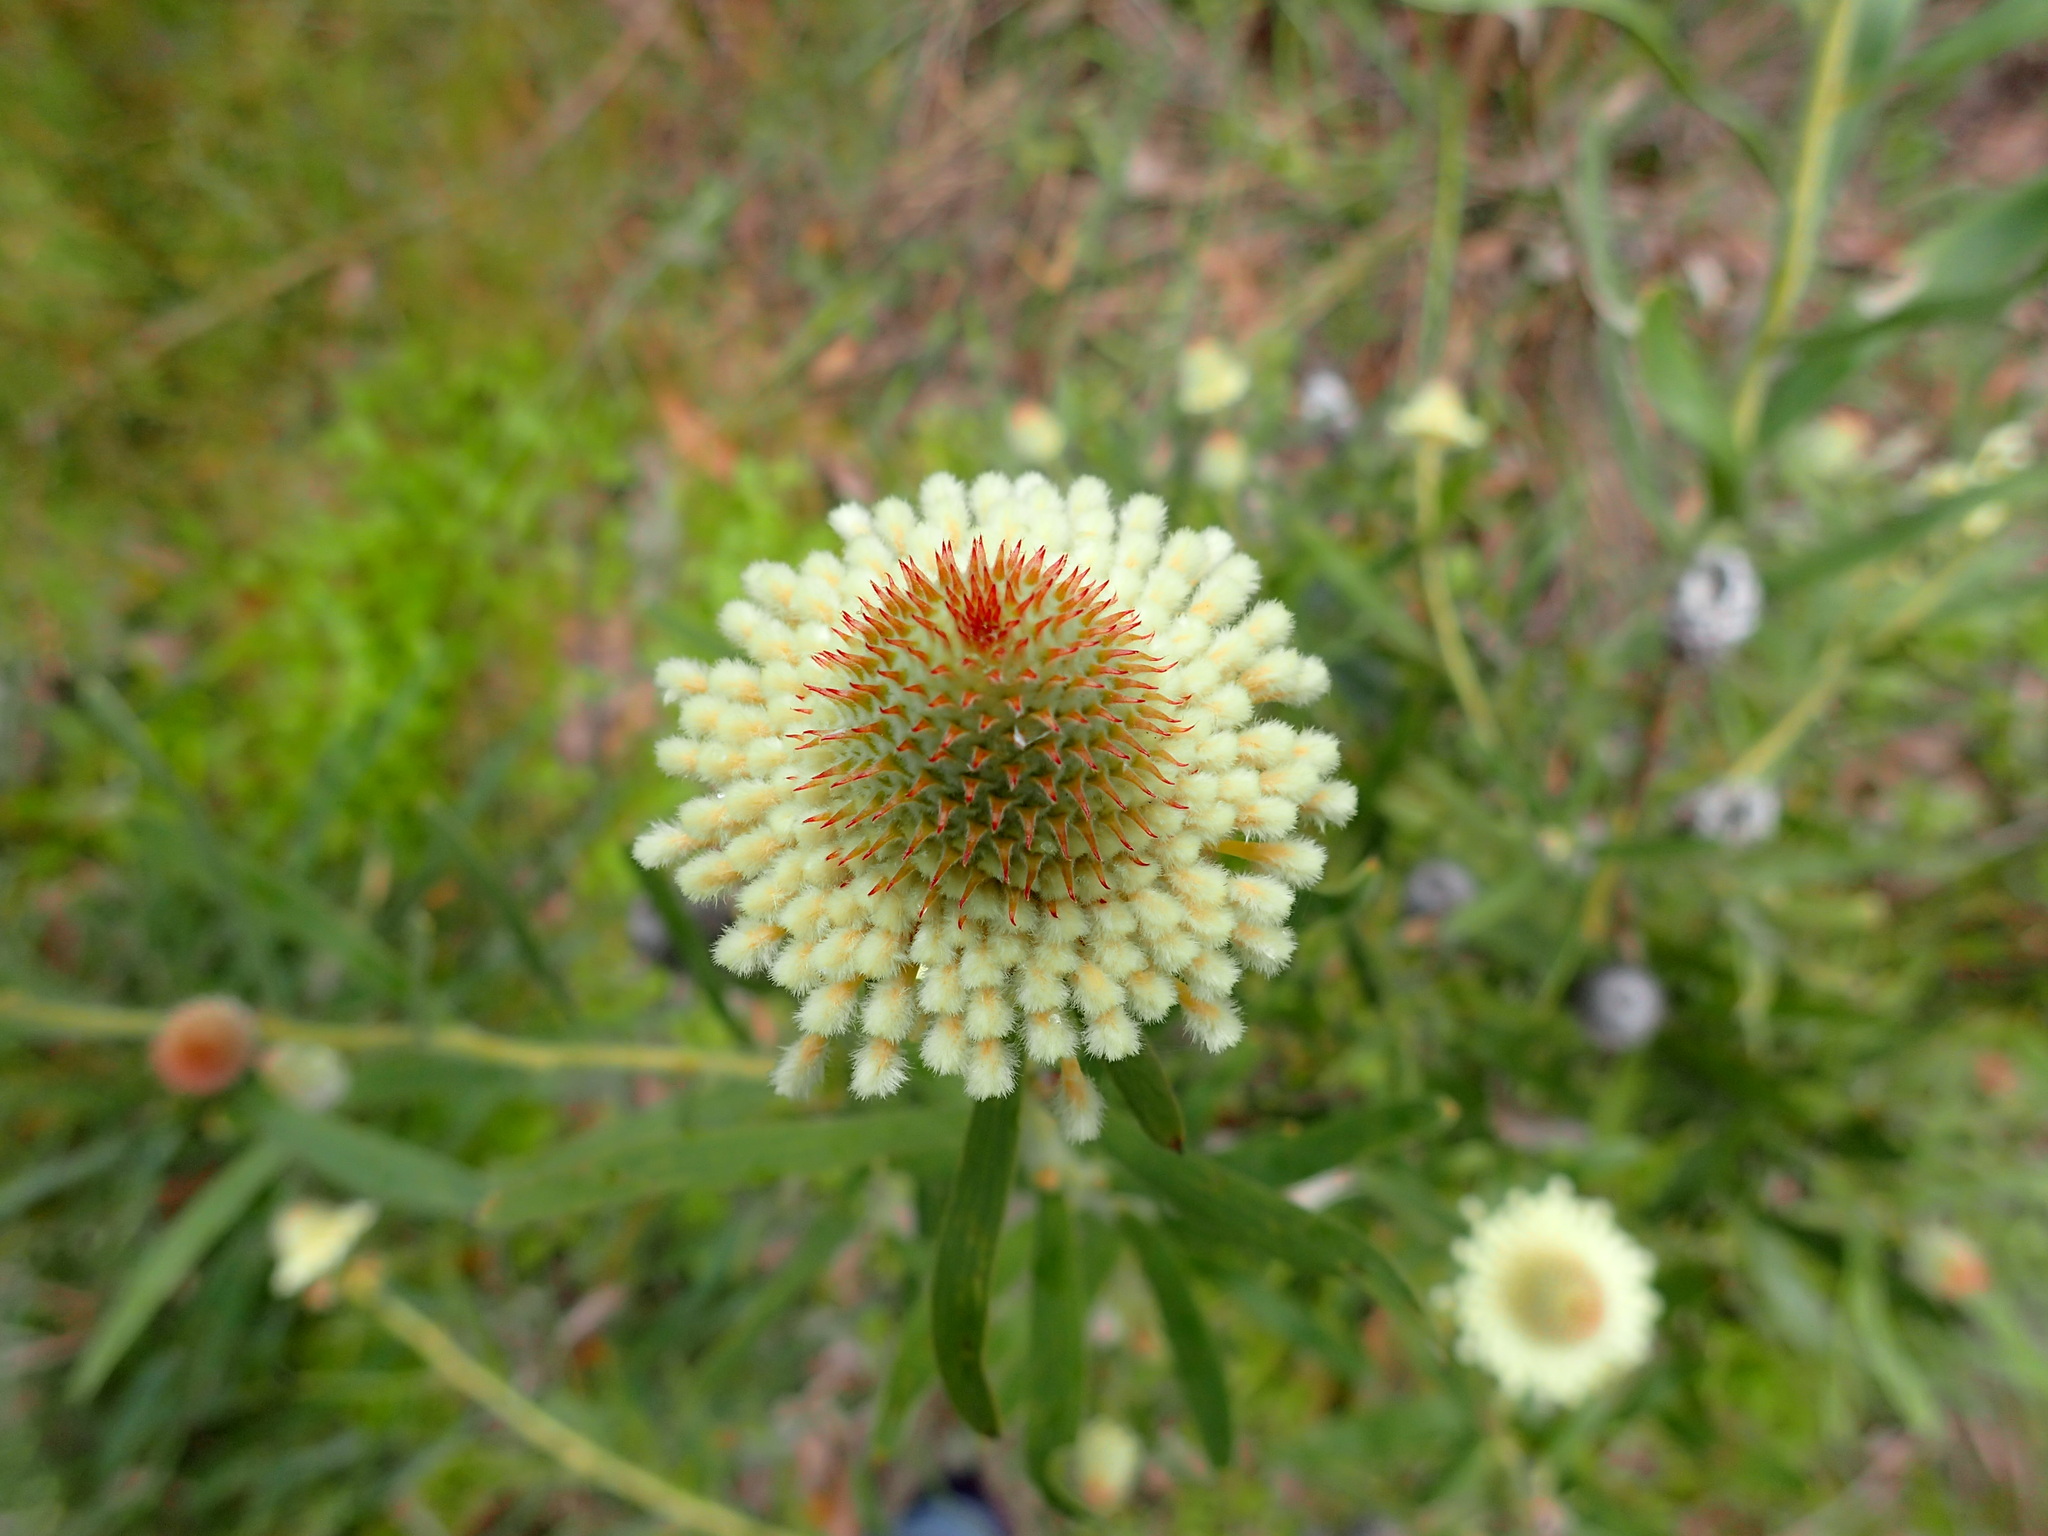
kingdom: Plantae
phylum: Tracheophyta
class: Magnoliopsida
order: Proteales
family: Proteaceae
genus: Isopogon
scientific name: Isopogon sphaerocephalus
